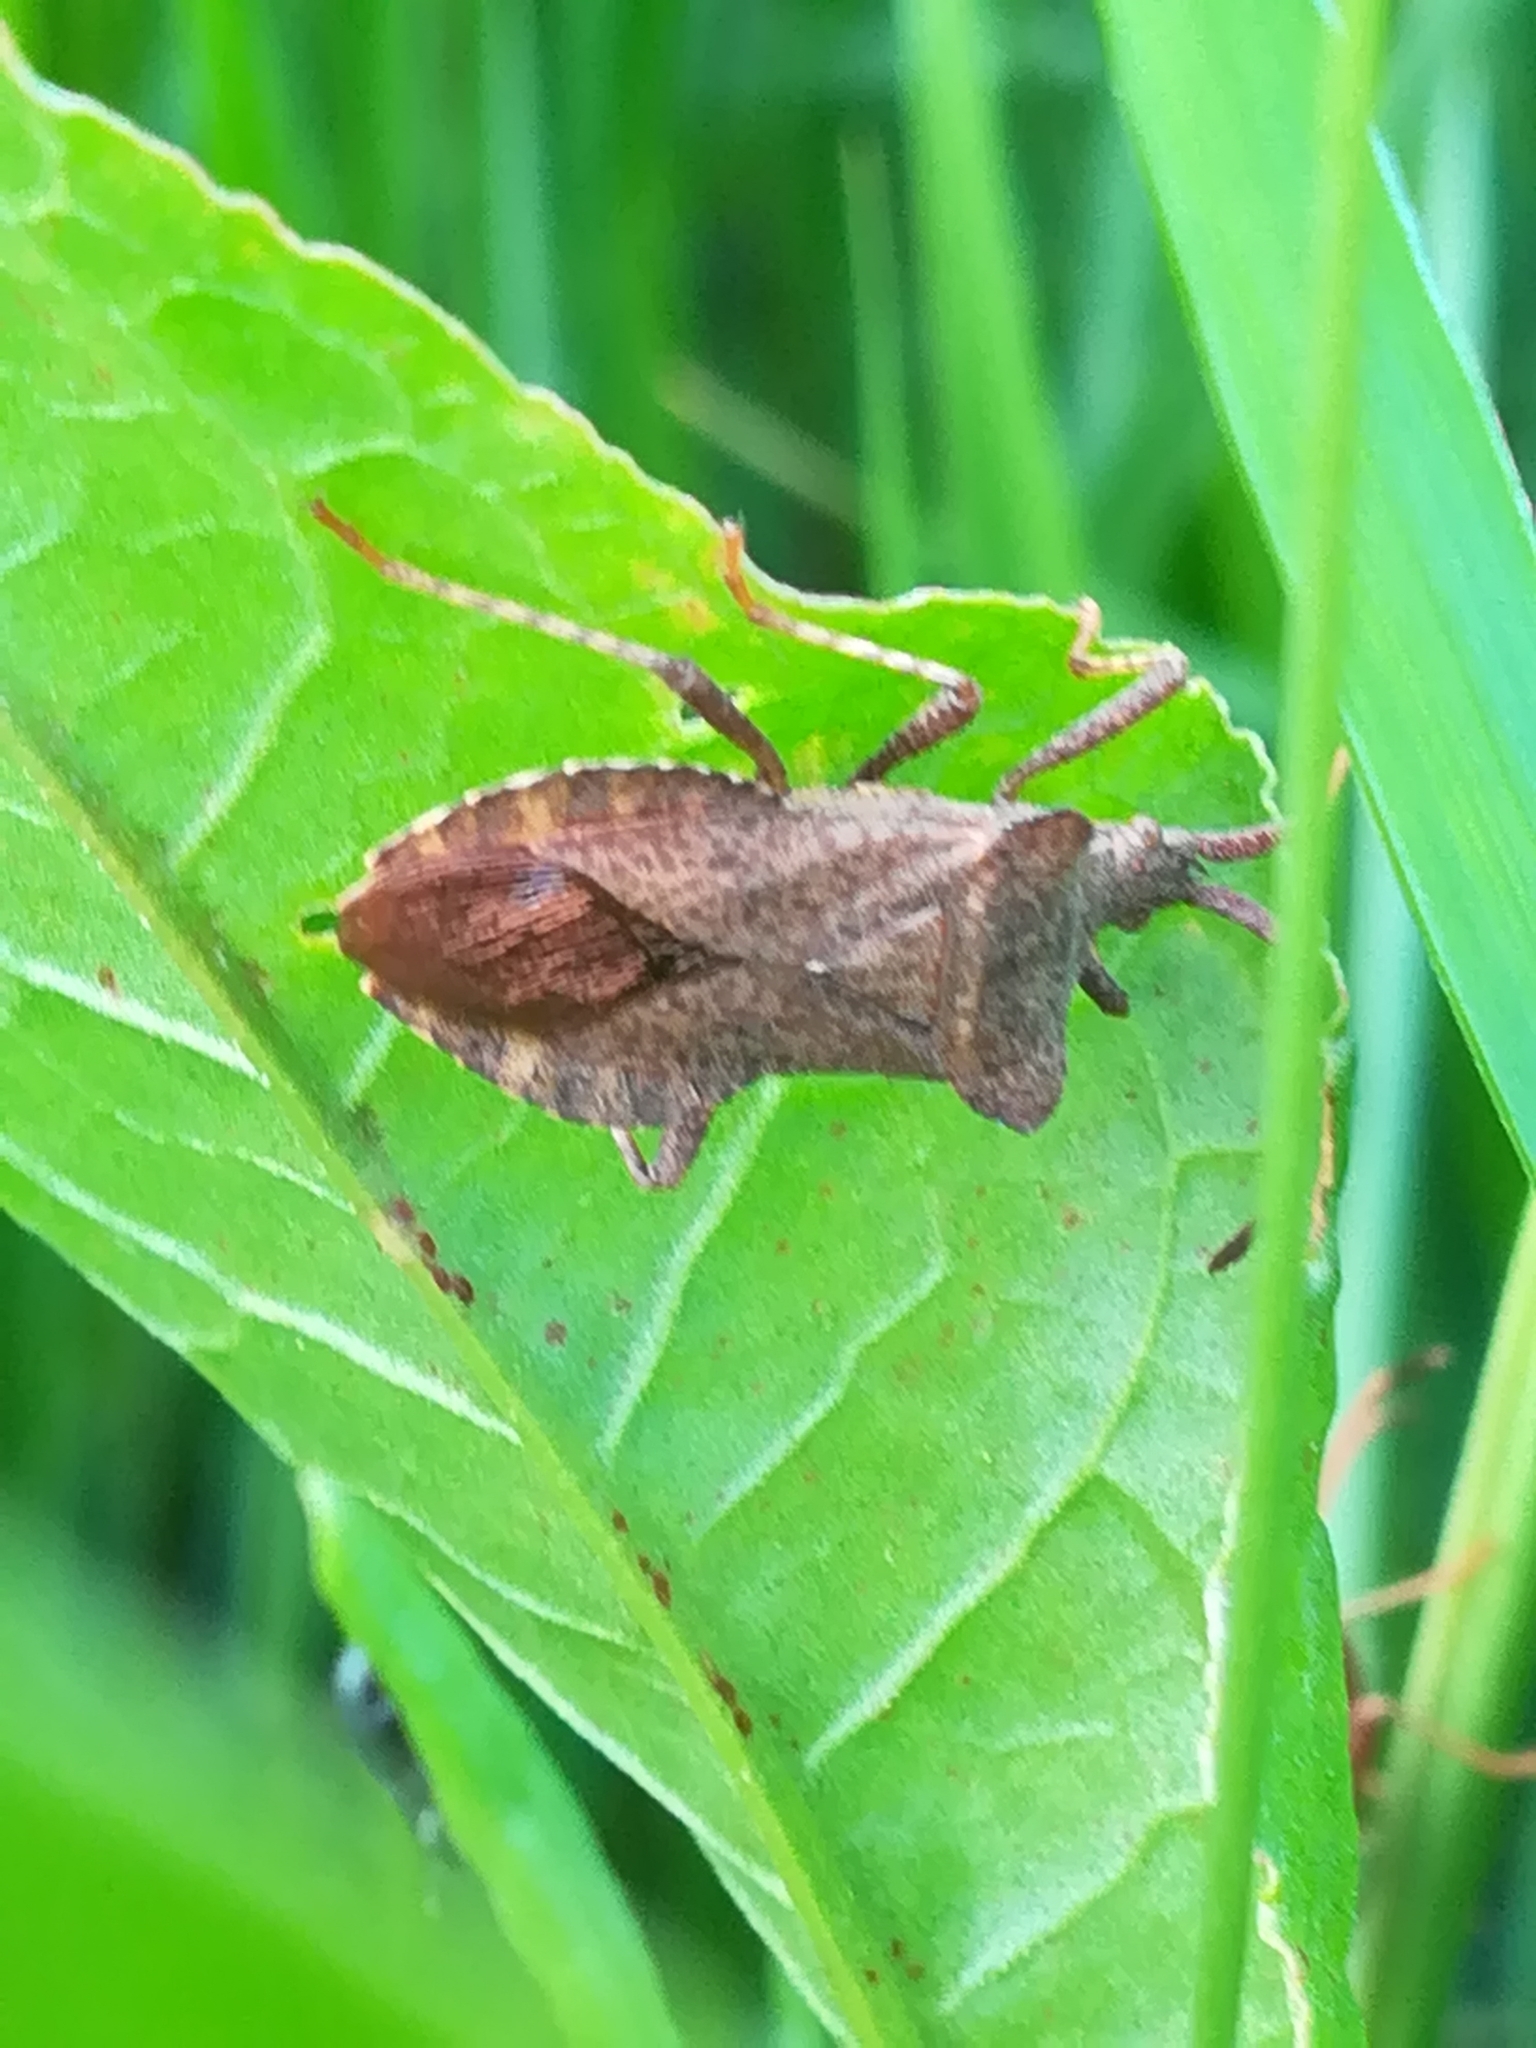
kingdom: Animalia
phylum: Arthropoda
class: Insecta
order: Hemiptera
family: Coreidae
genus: Coreus
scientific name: Coreus marginatus
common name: Dock bug
